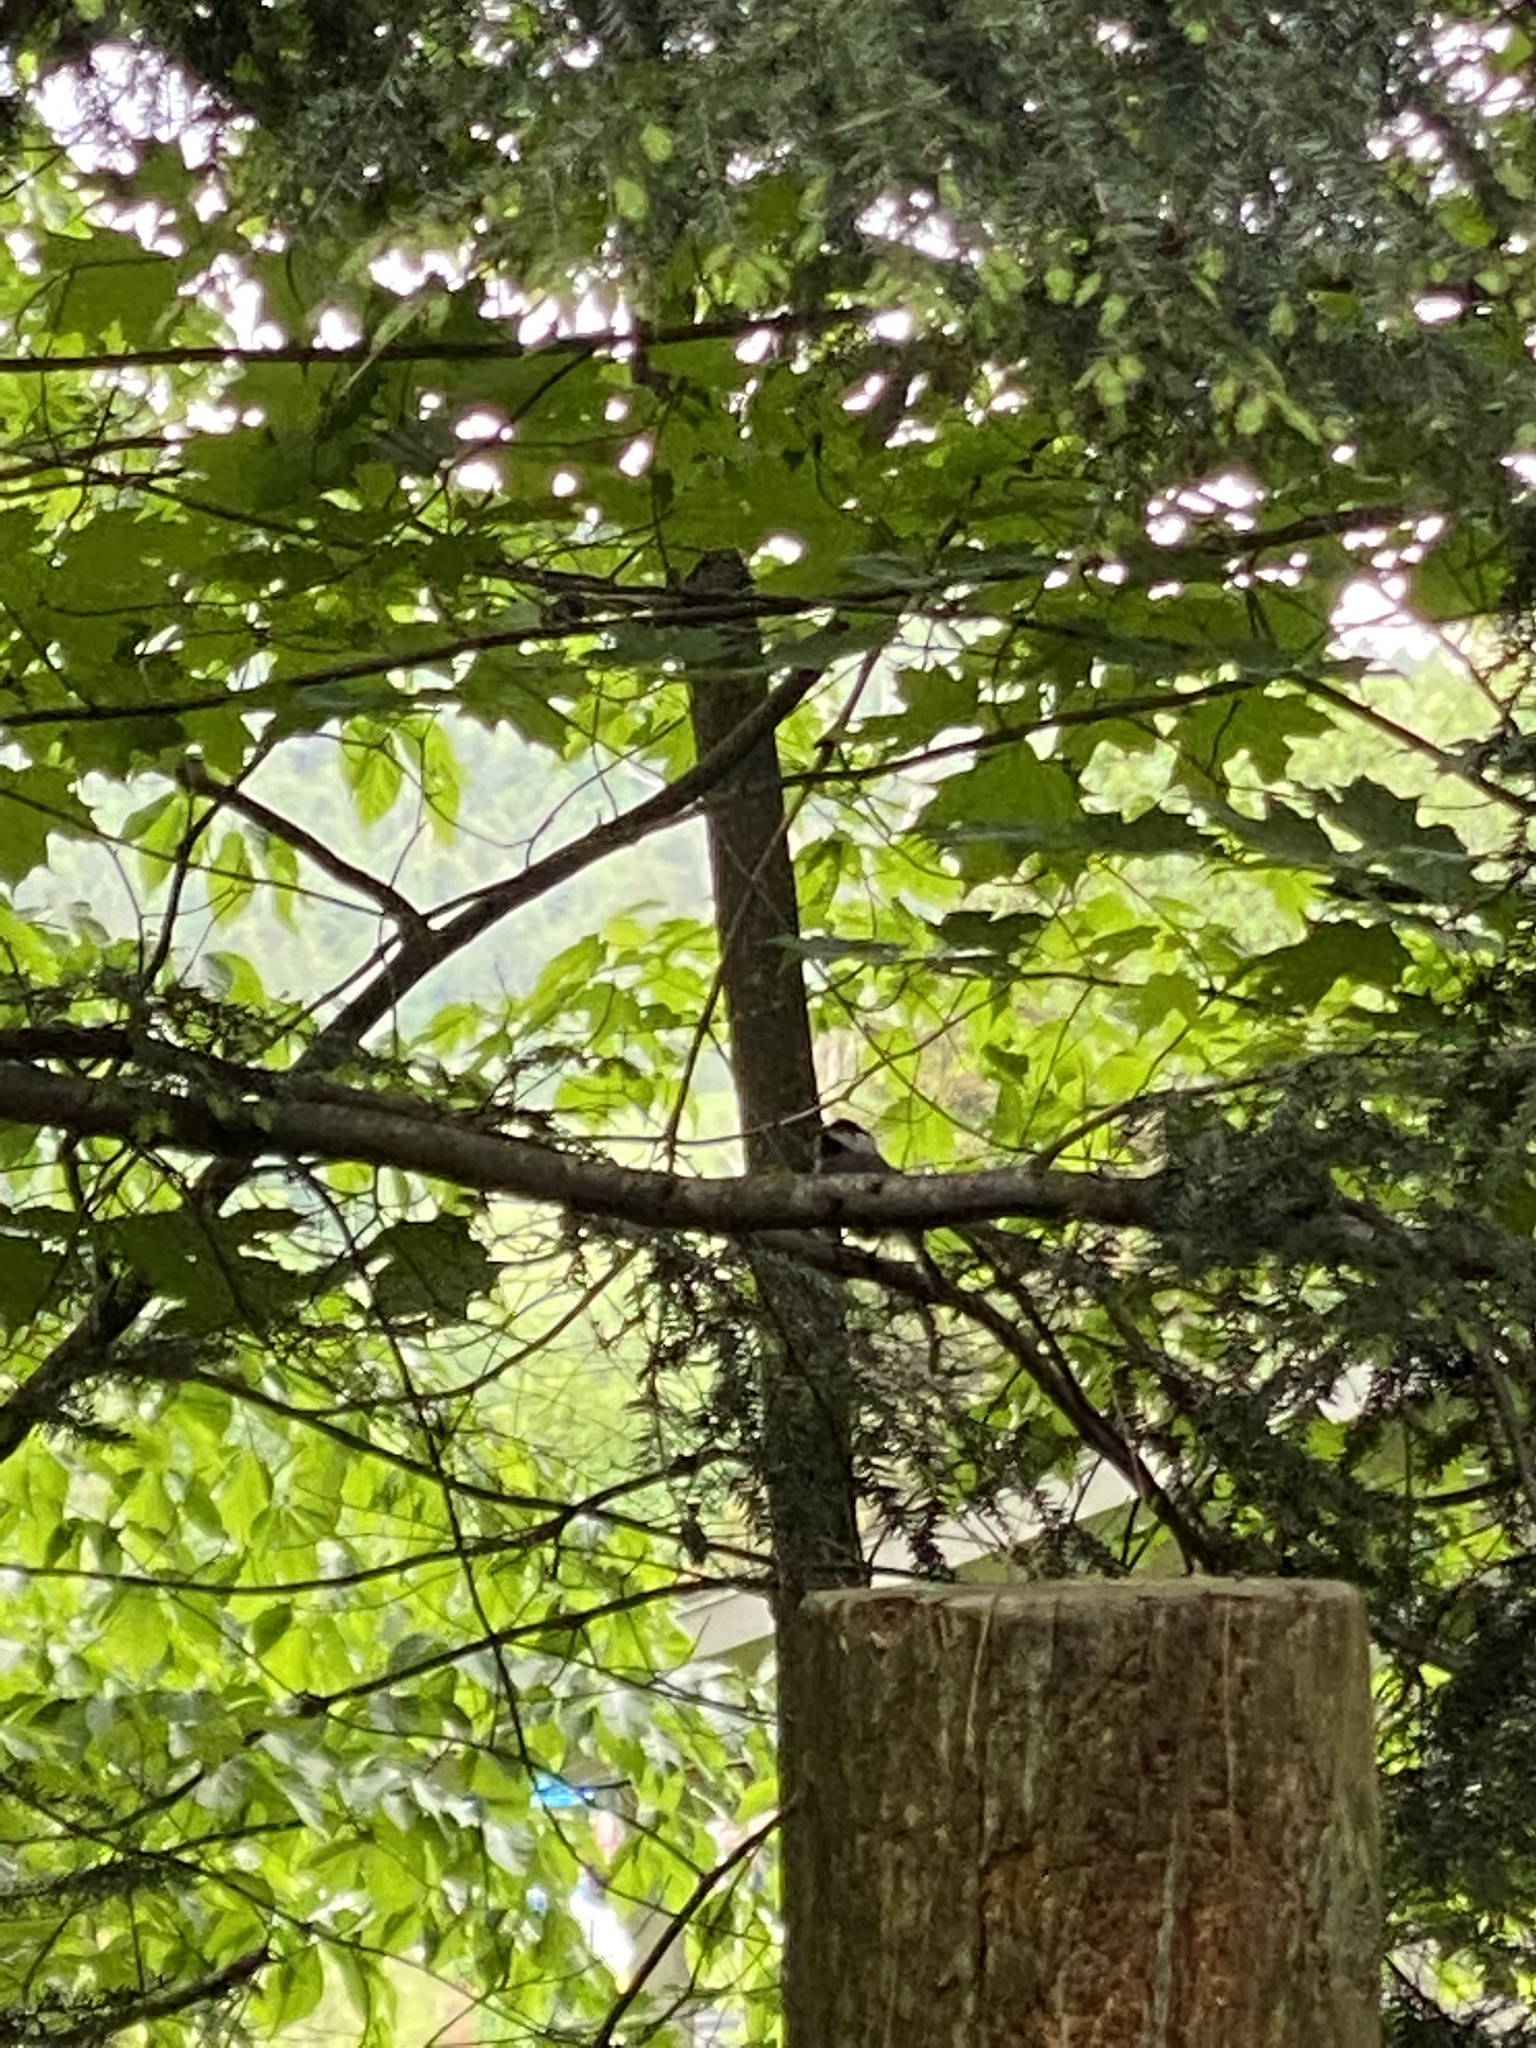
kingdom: Animalia
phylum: Chordata
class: Aves
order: Passeriformes
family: Paridae
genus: Poecile
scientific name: Poecile atricapillus
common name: Black-capped chickadee
